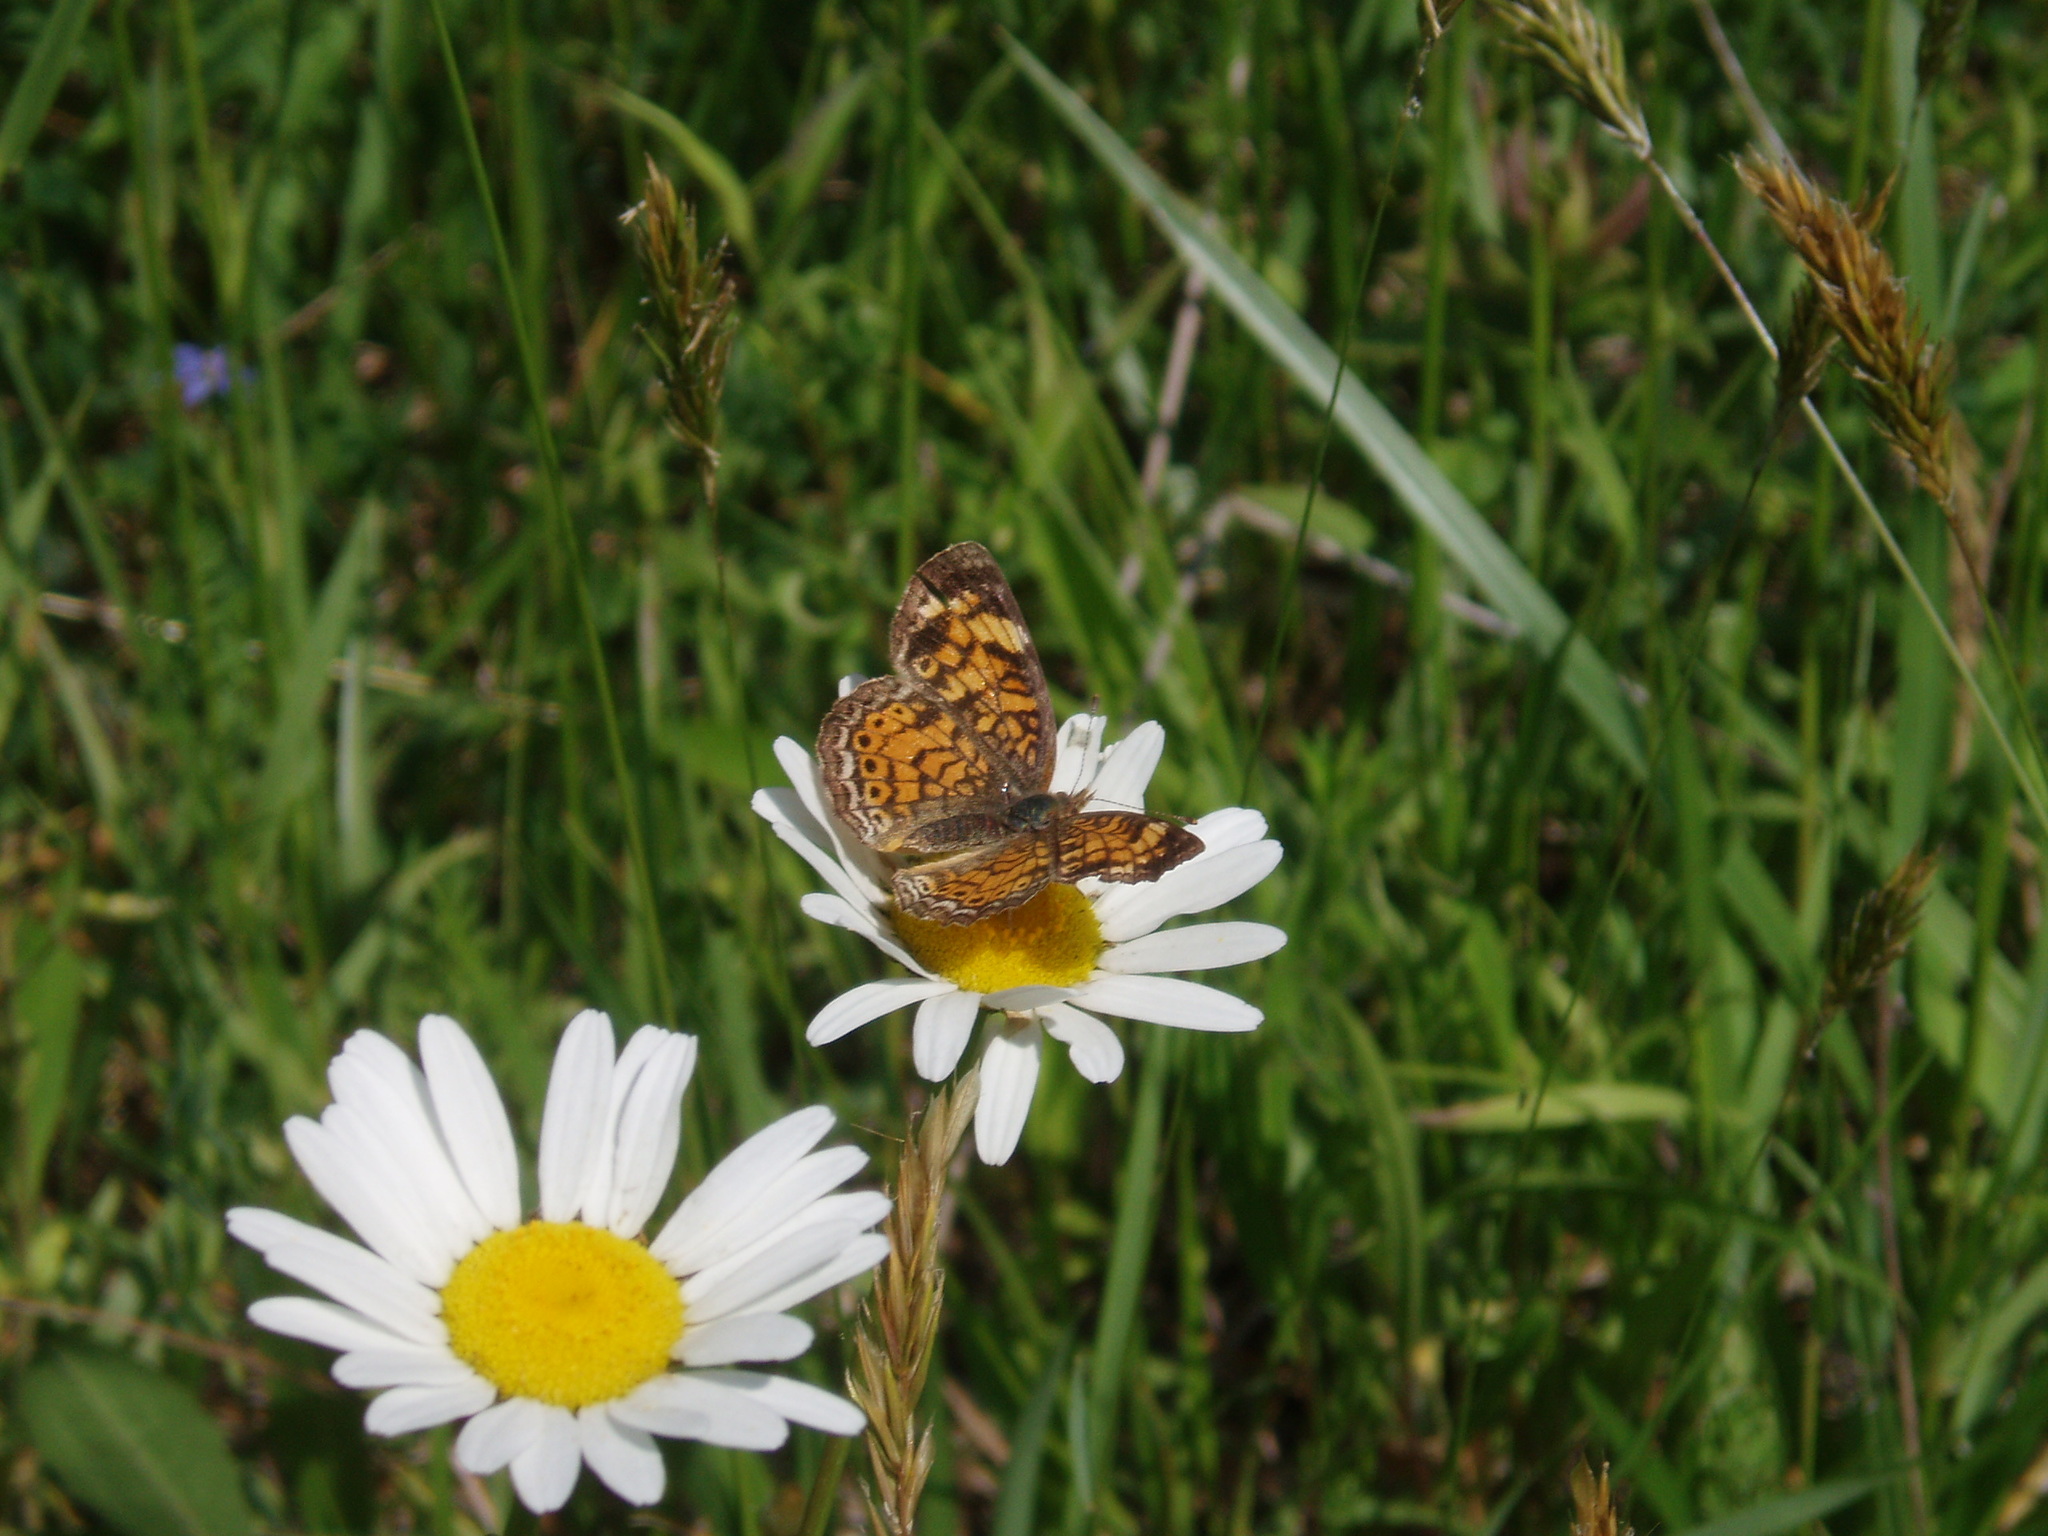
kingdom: Animalia
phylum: Arthropoda
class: Insecta
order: Lepidoptera
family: Nymphalidae
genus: Phyciodes
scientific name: Phyciodes tharos
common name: Pearl crescent
